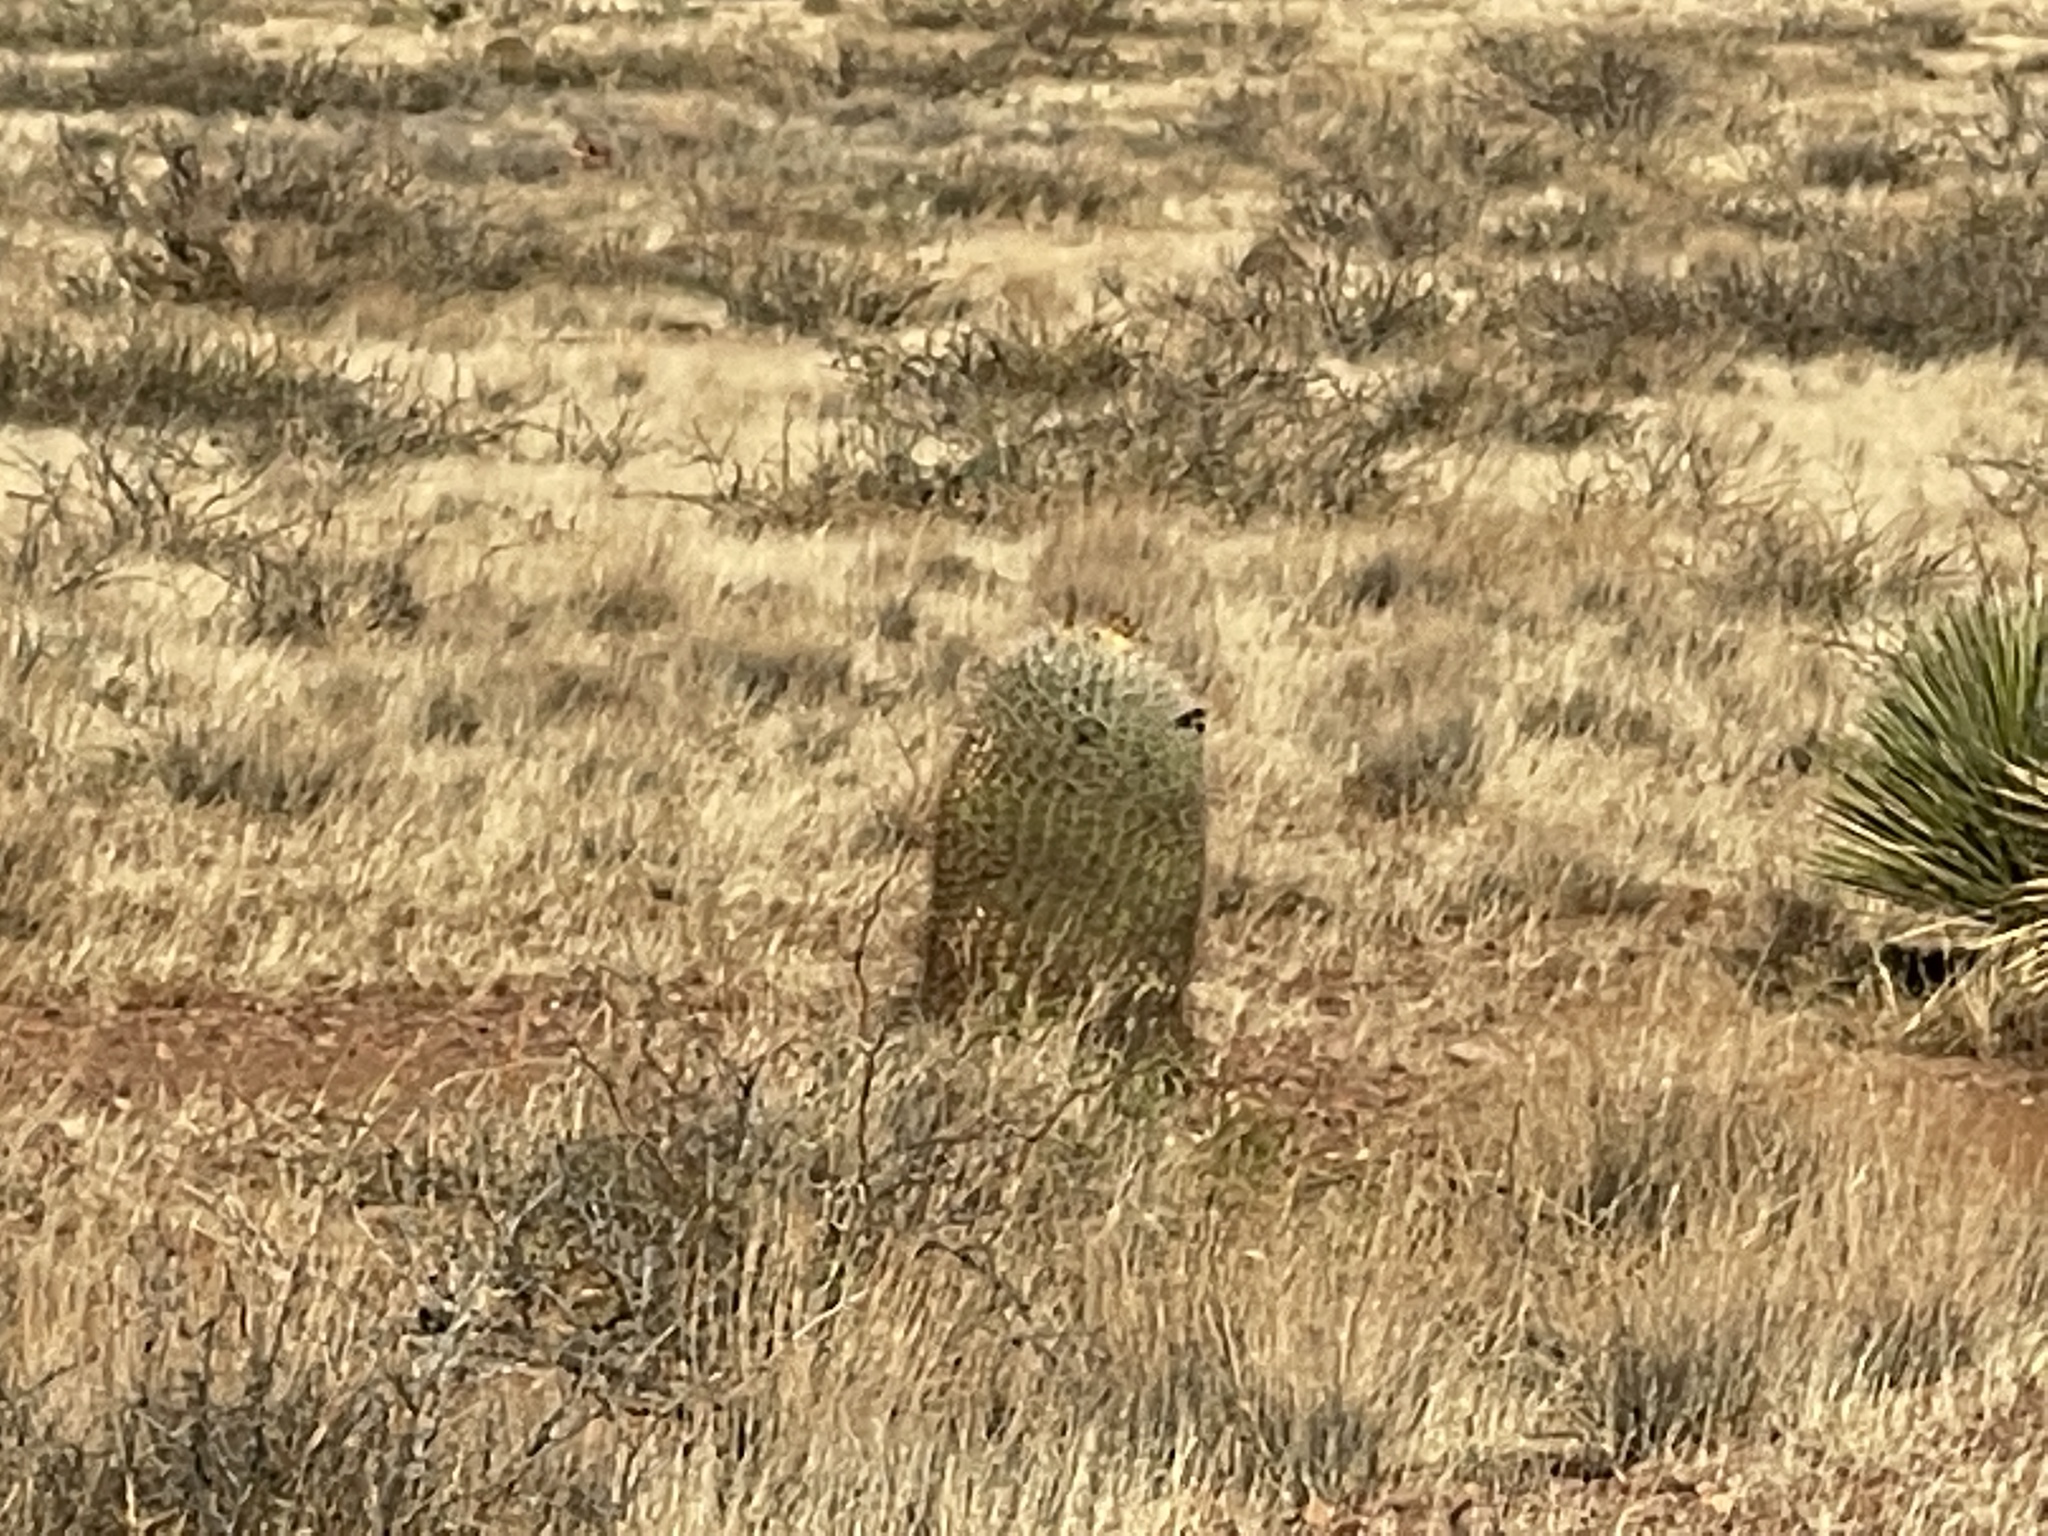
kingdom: Plantae
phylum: Tracheophyta
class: Magnoliopsida
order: Caryophyllales
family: Cactaceae
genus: Ferocactus
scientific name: Ferocactus wislizeni
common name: Candy barrel cactus
